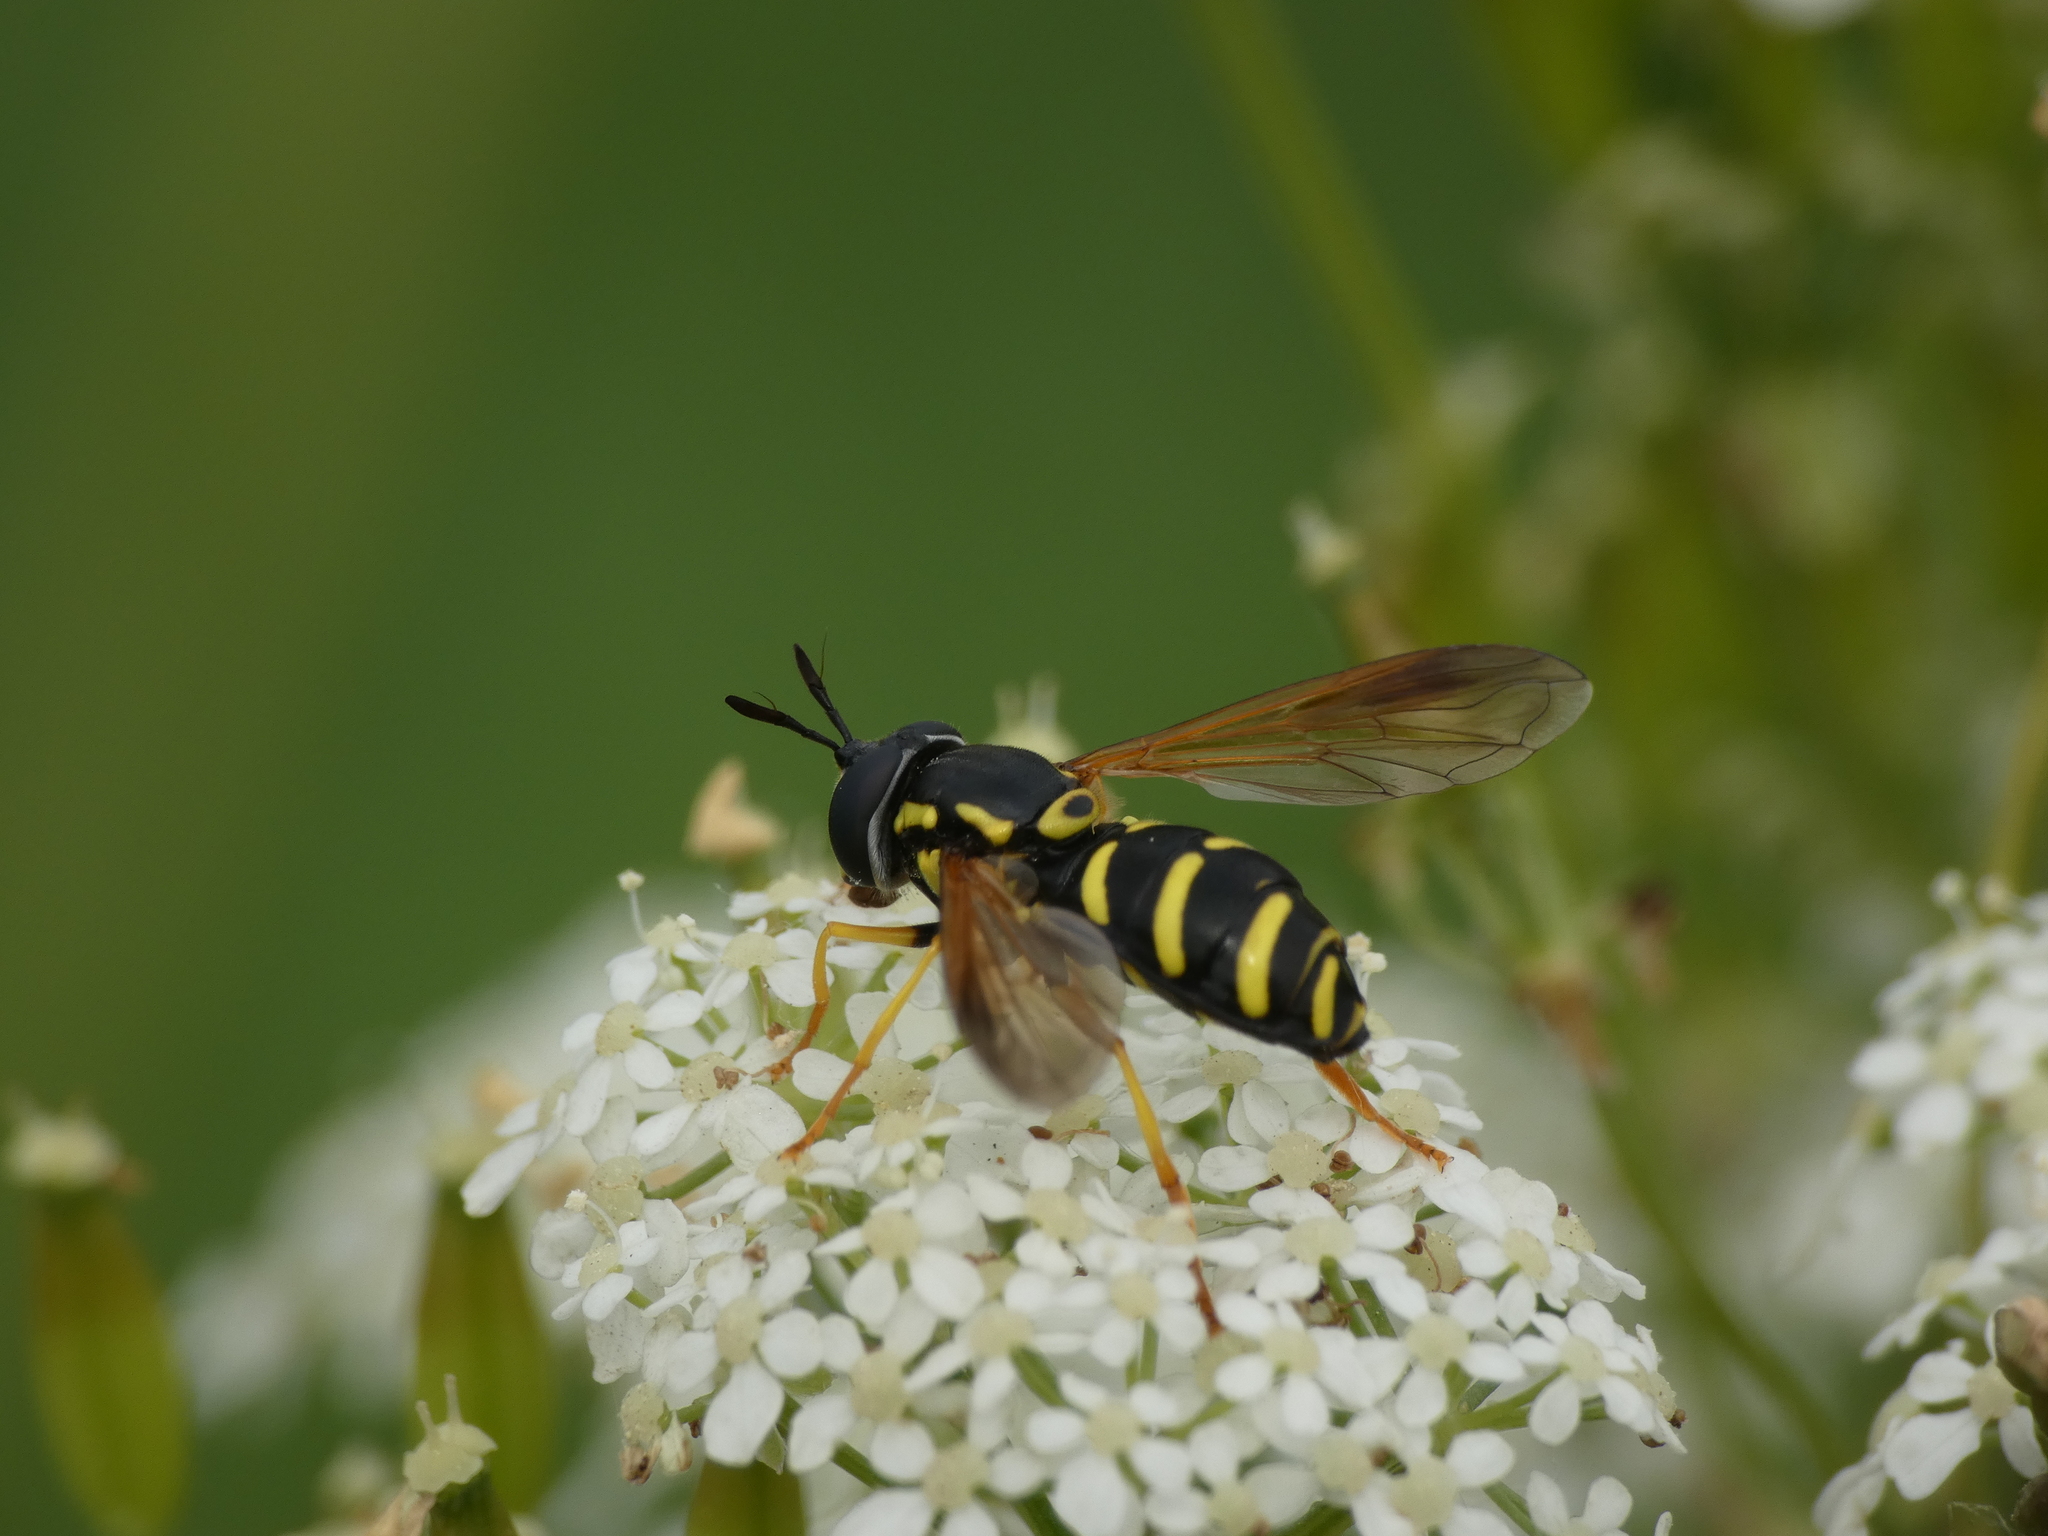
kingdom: Animalia
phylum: Arthropoda
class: Insecta
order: Diptera
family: Syrphidae
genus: Chrysotoxum
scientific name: Chrysotoxum vernale
